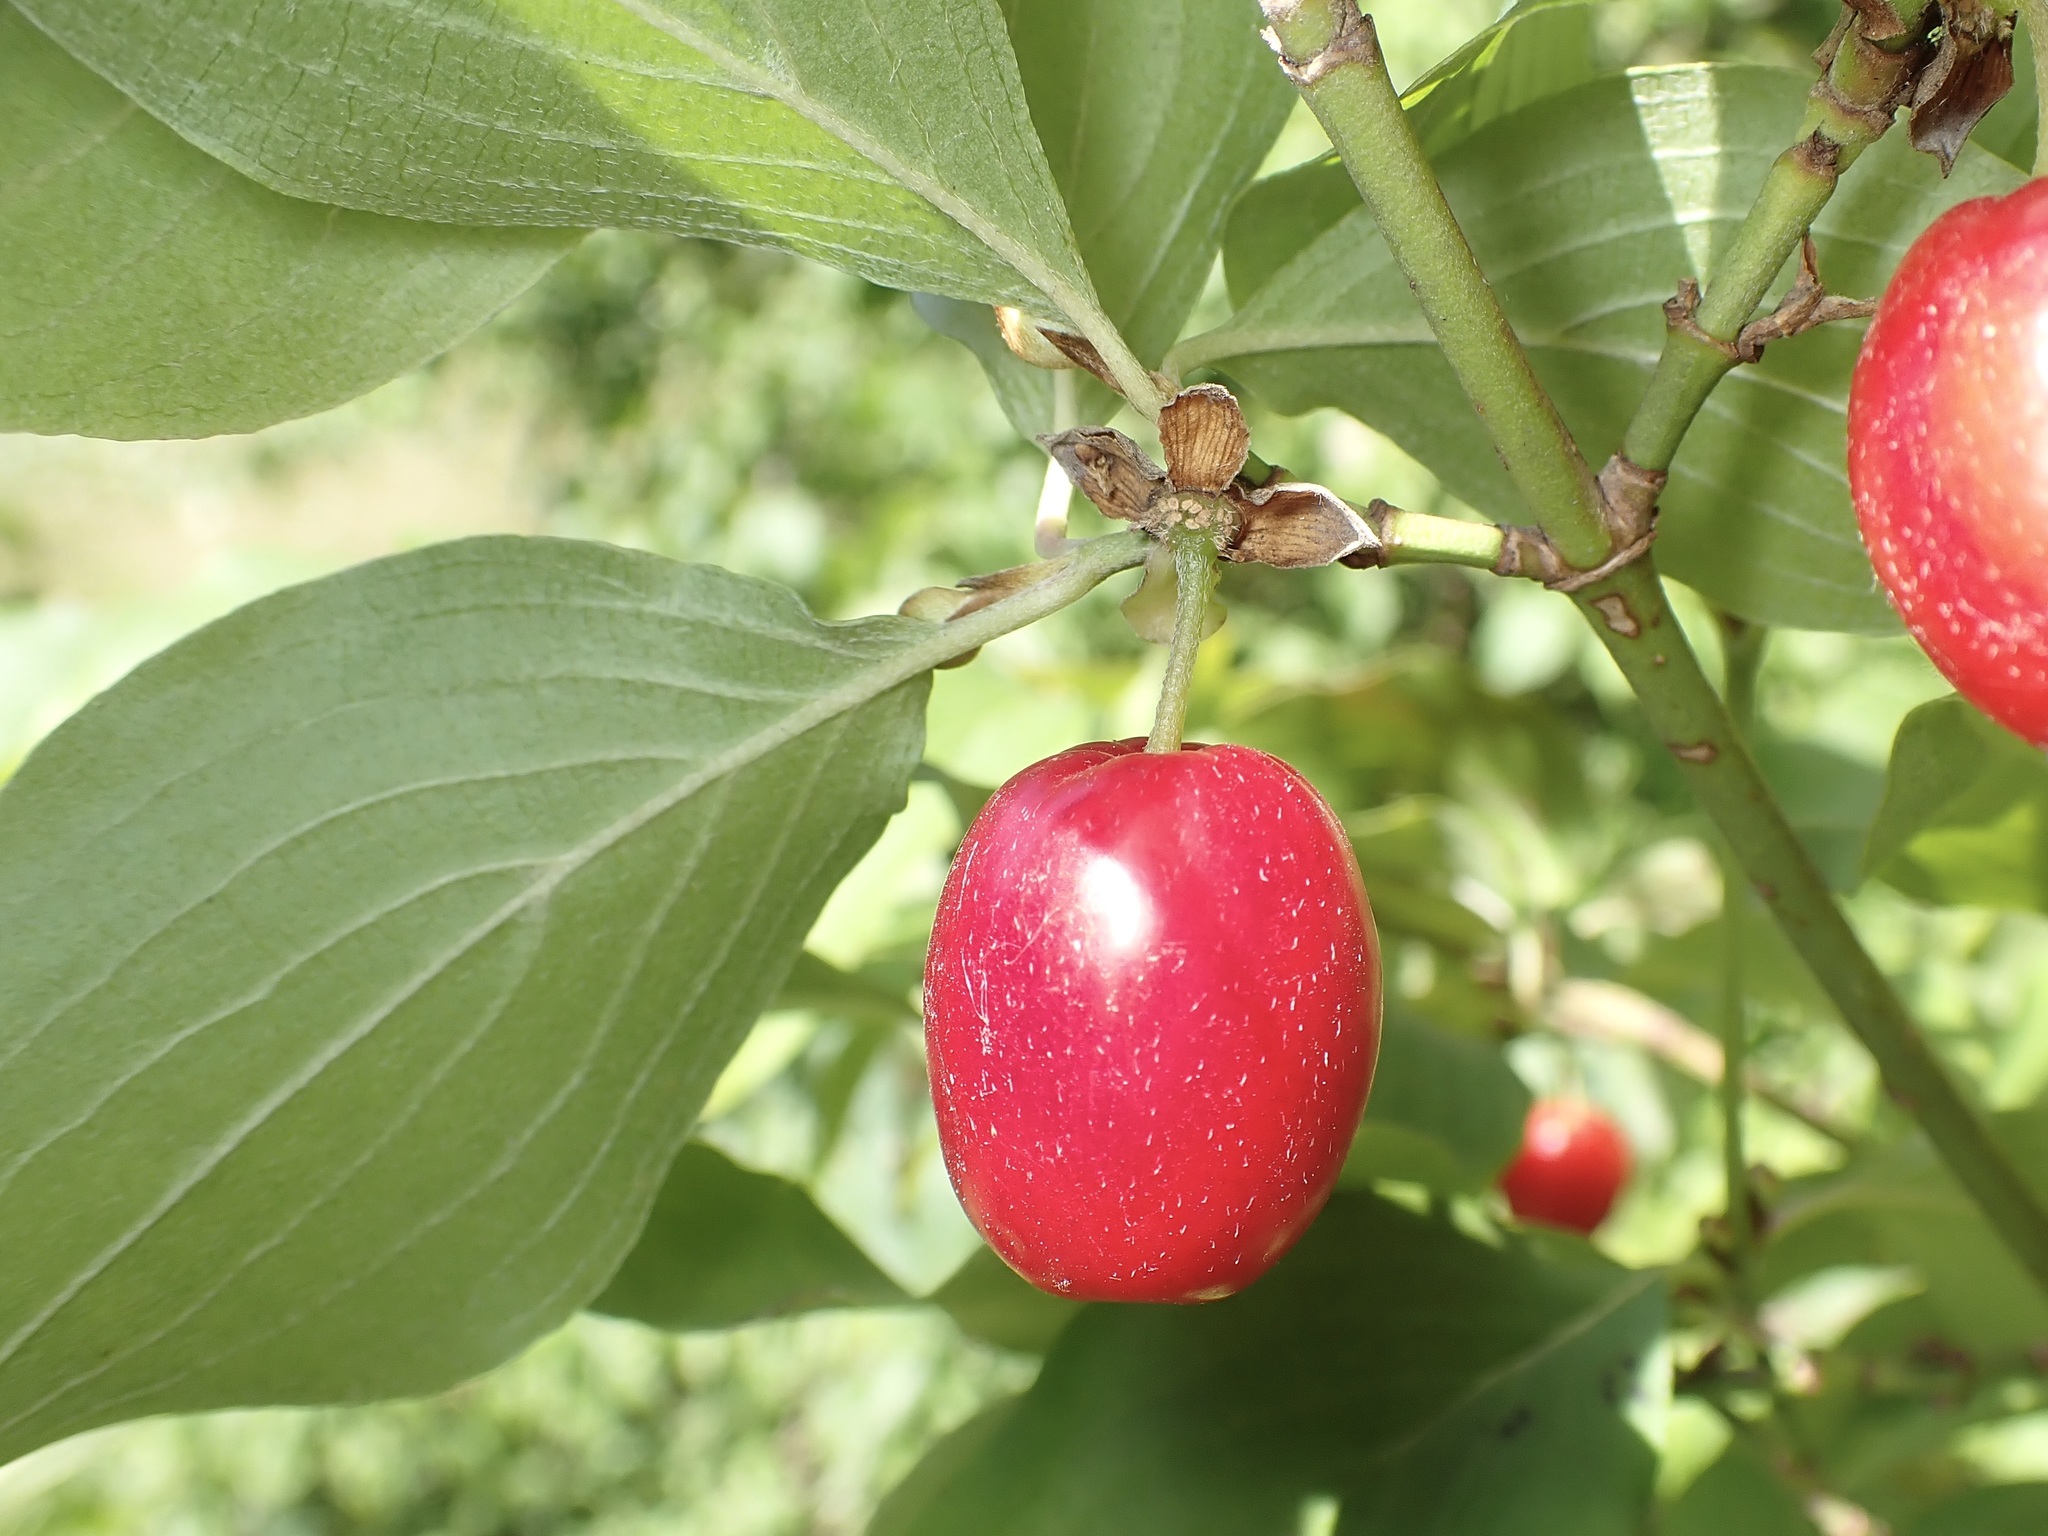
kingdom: Plantae
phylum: Tracheophyta
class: Magnoliopsida
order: Cornales
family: Cornaceae
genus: Cornus
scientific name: Cornus mas
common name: Cornelian-cherry
